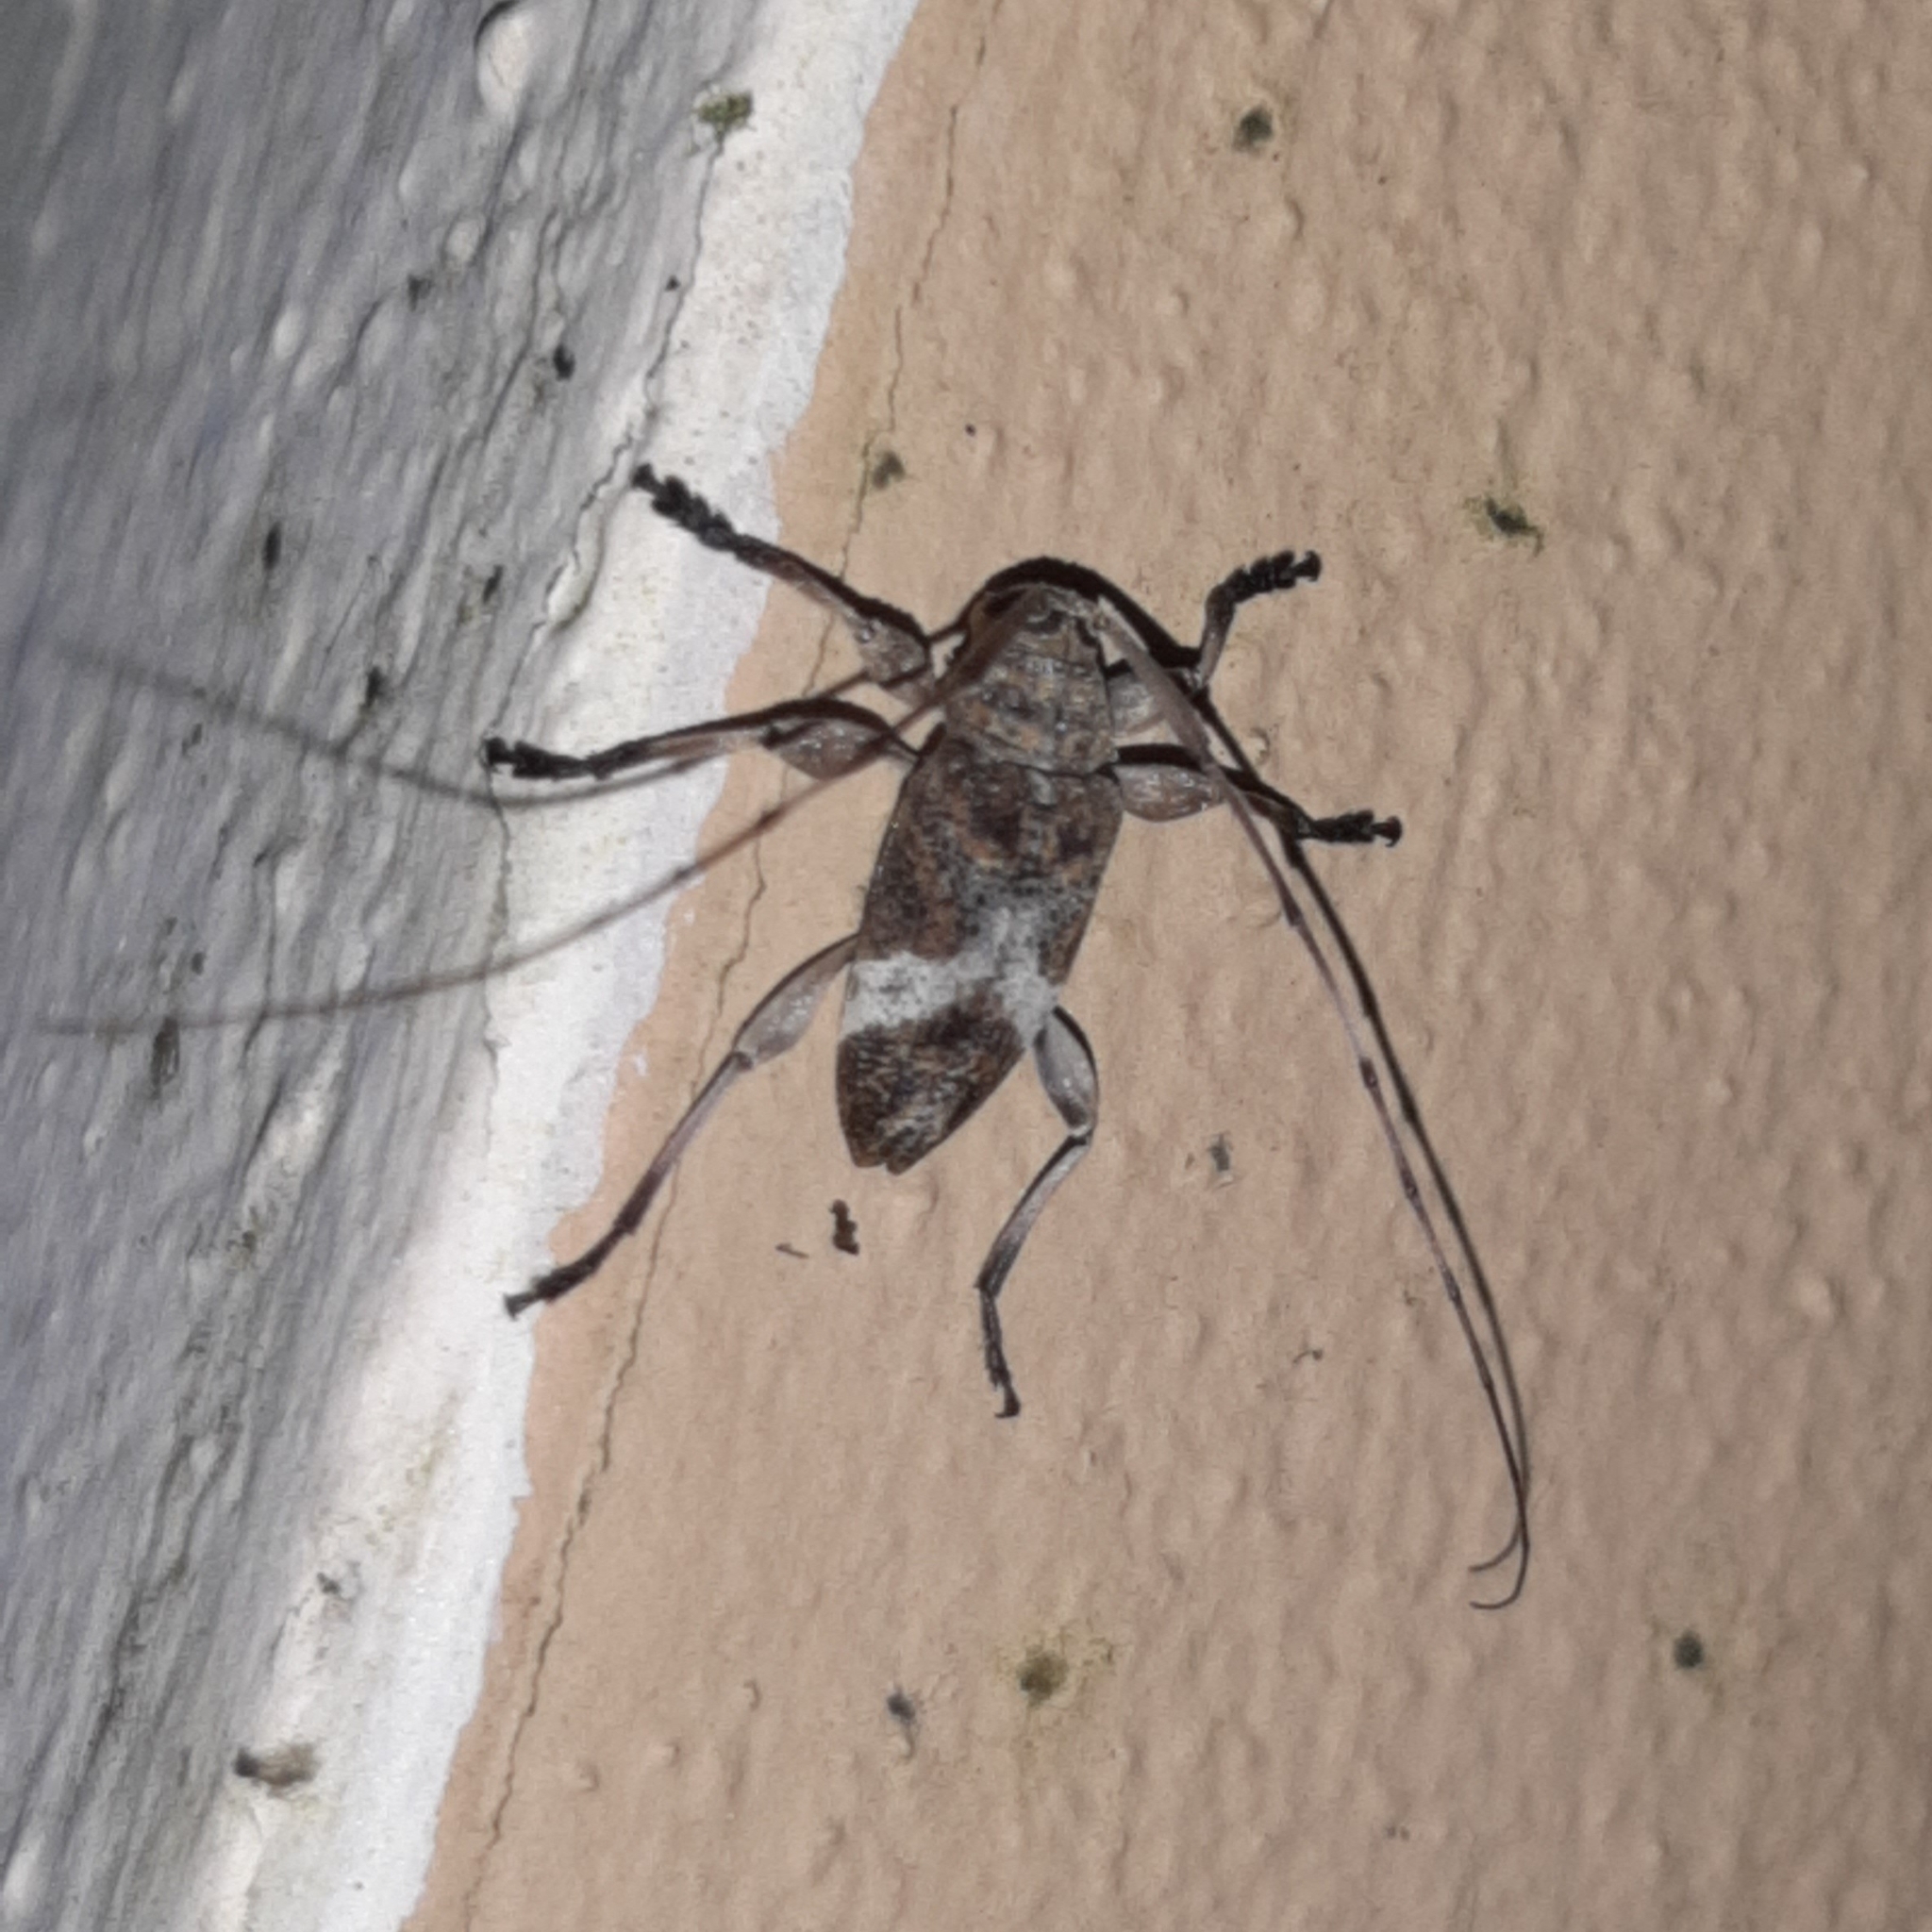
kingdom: Animalia
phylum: Arthropoda
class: Insecta
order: Coleoptera
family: Cerambycidae
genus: Atrypanius
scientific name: Atrypanius implexus
